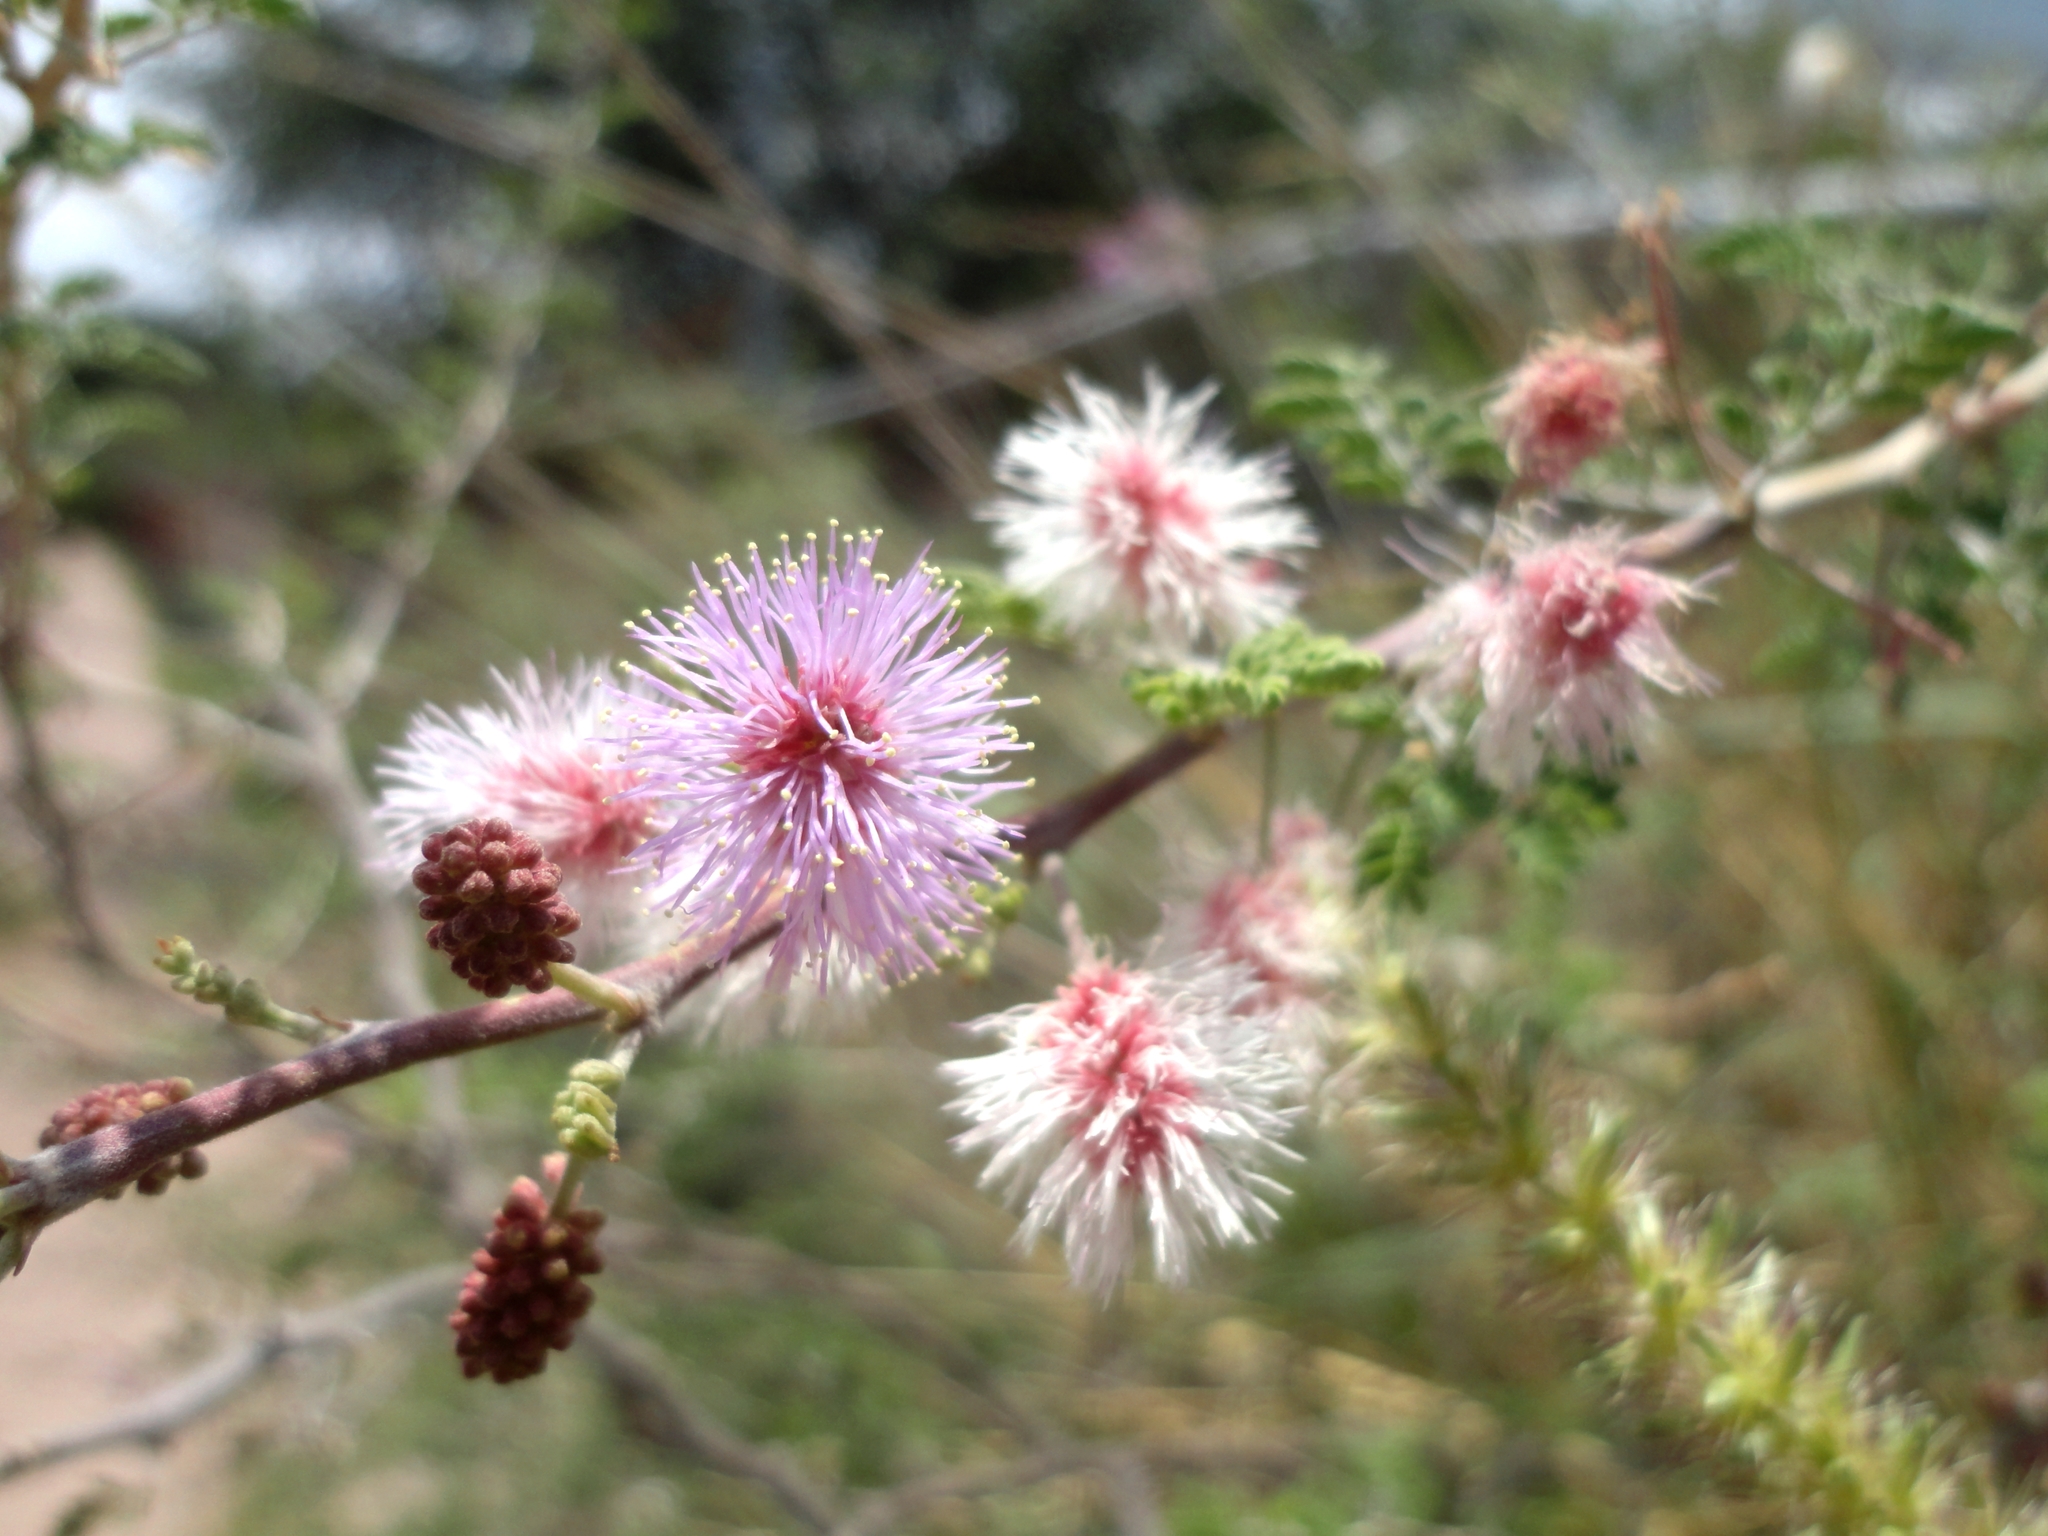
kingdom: Plantae
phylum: Tracheophyta
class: Magnoliopsida
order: Fabales
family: Fabaceae
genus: Mimosa
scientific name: Mimosa aculeaticarpa
